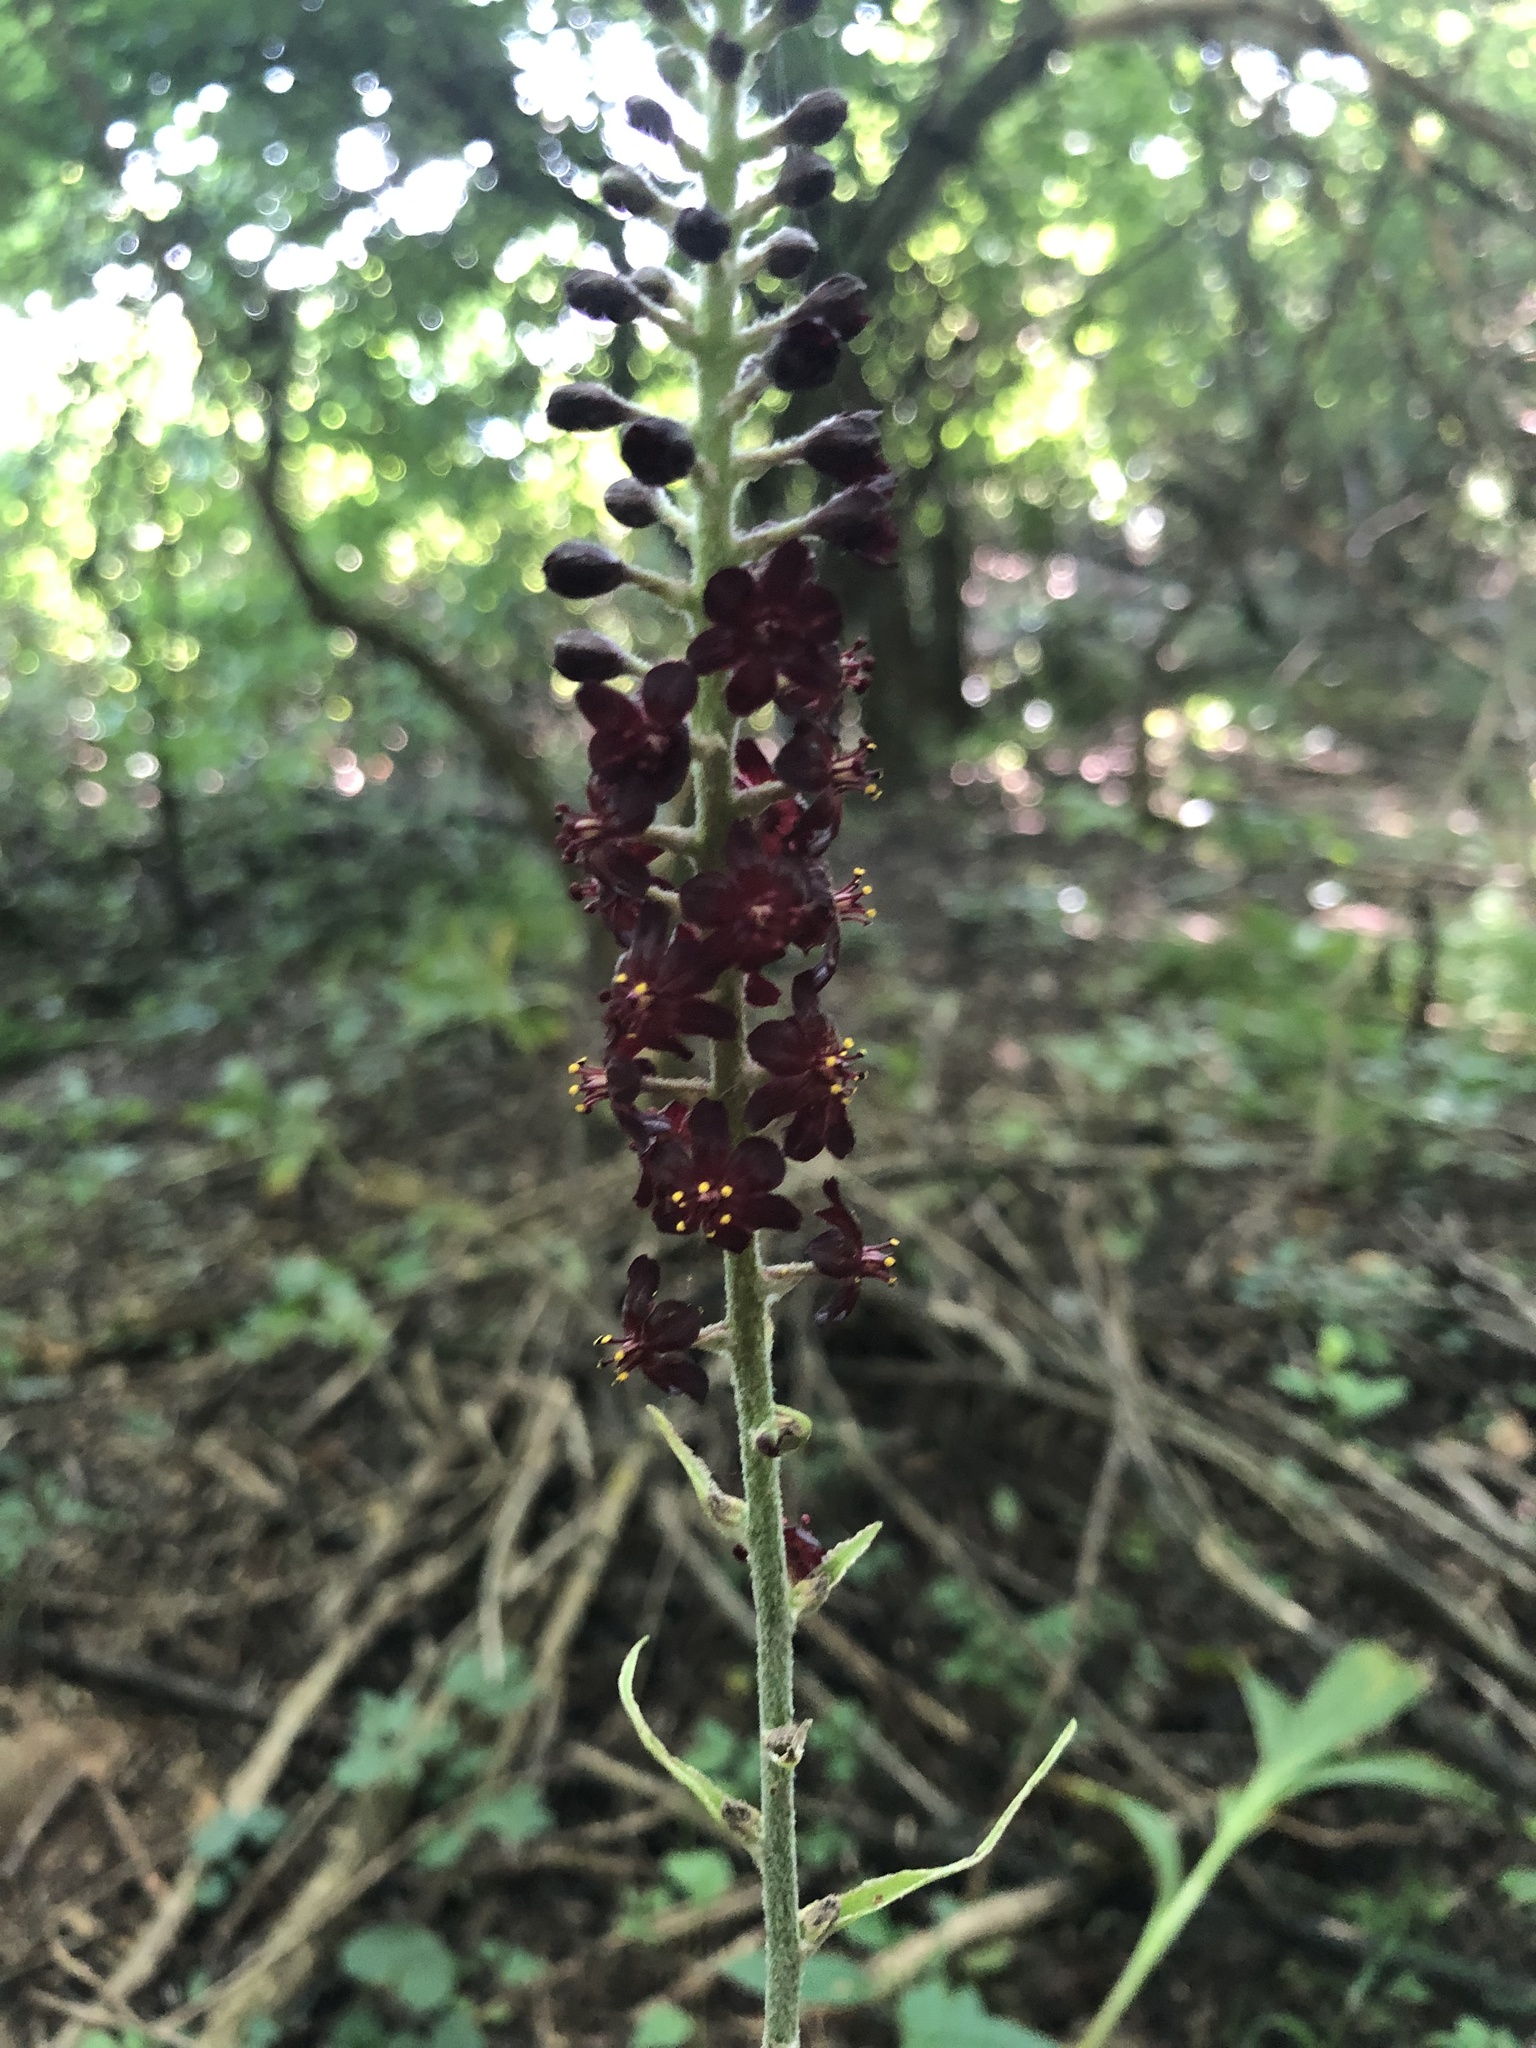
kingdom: Plantae
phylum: Tracheophyta
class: Liliopsida
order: Liliales
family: Melanthiaceae
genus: Veratrum
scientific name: Veratrum nigrum
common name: Black veratrum
